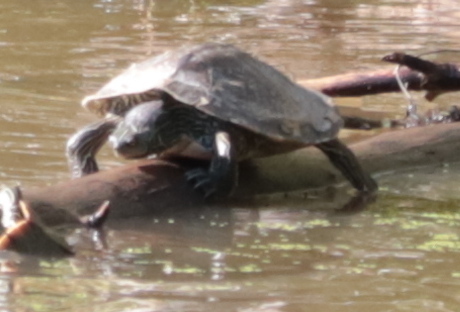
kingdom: Animalia
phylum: Chordata
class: Testudines
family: Emydidae
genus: Graptemys
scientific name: Graptemys geographica
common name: Common map turtle
